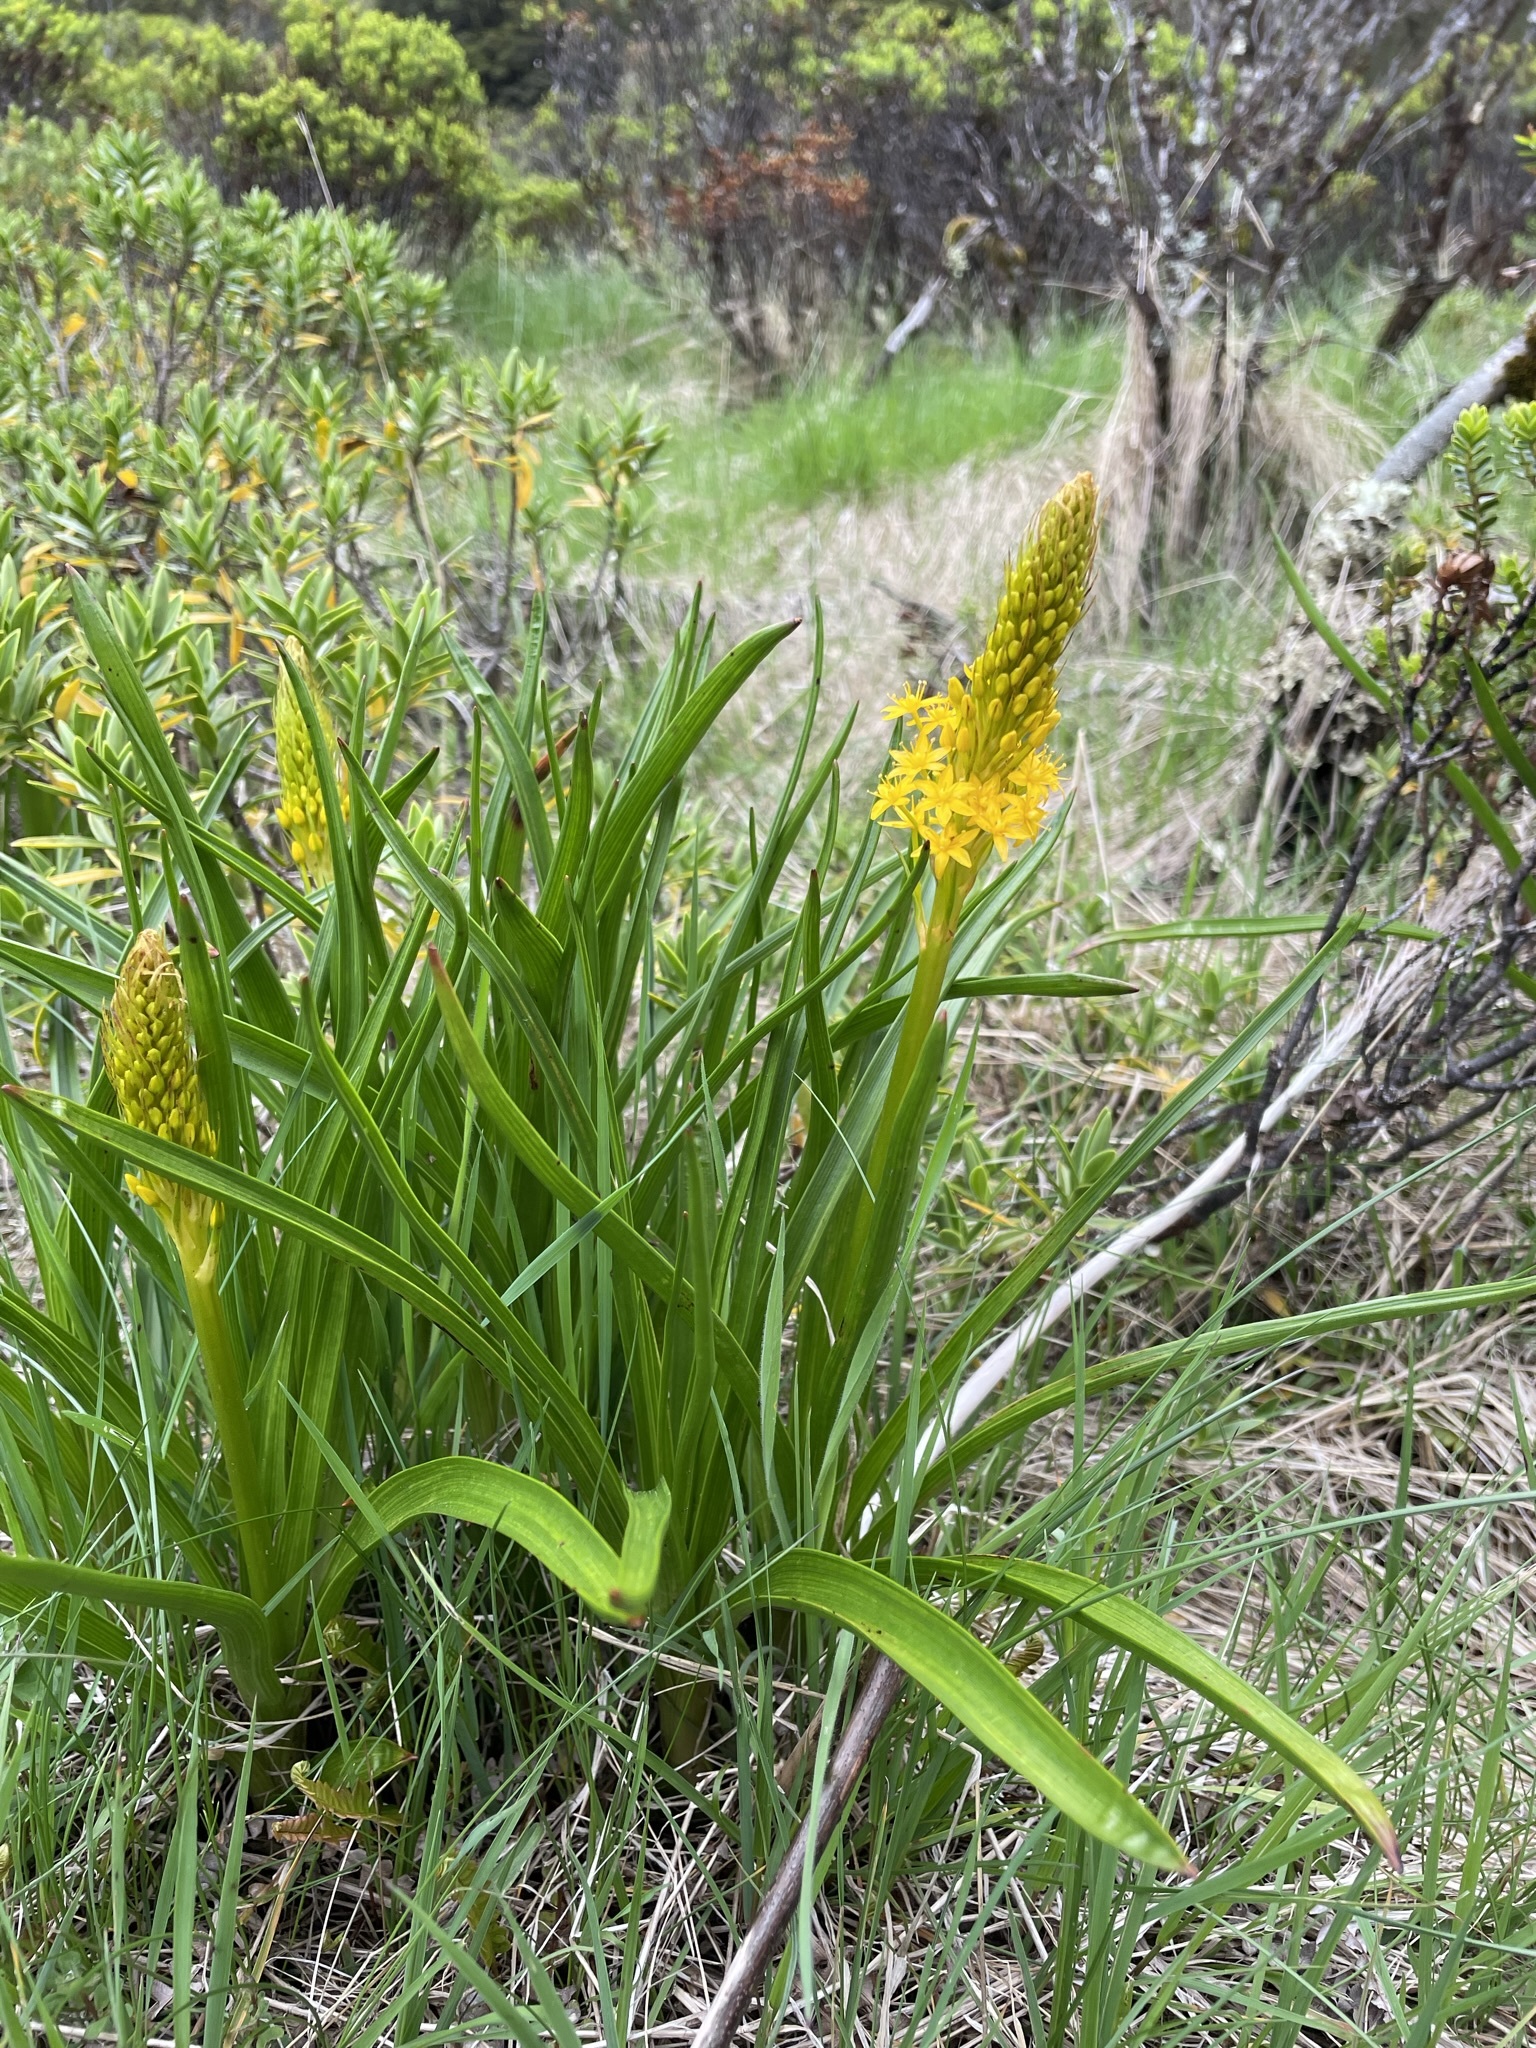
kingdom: Plantae
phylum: Tracheophyta
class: Liliopsida
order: Asparagales
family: Asphodelaceae
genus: Bulbinella
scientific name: Bulbinella gibbsii
